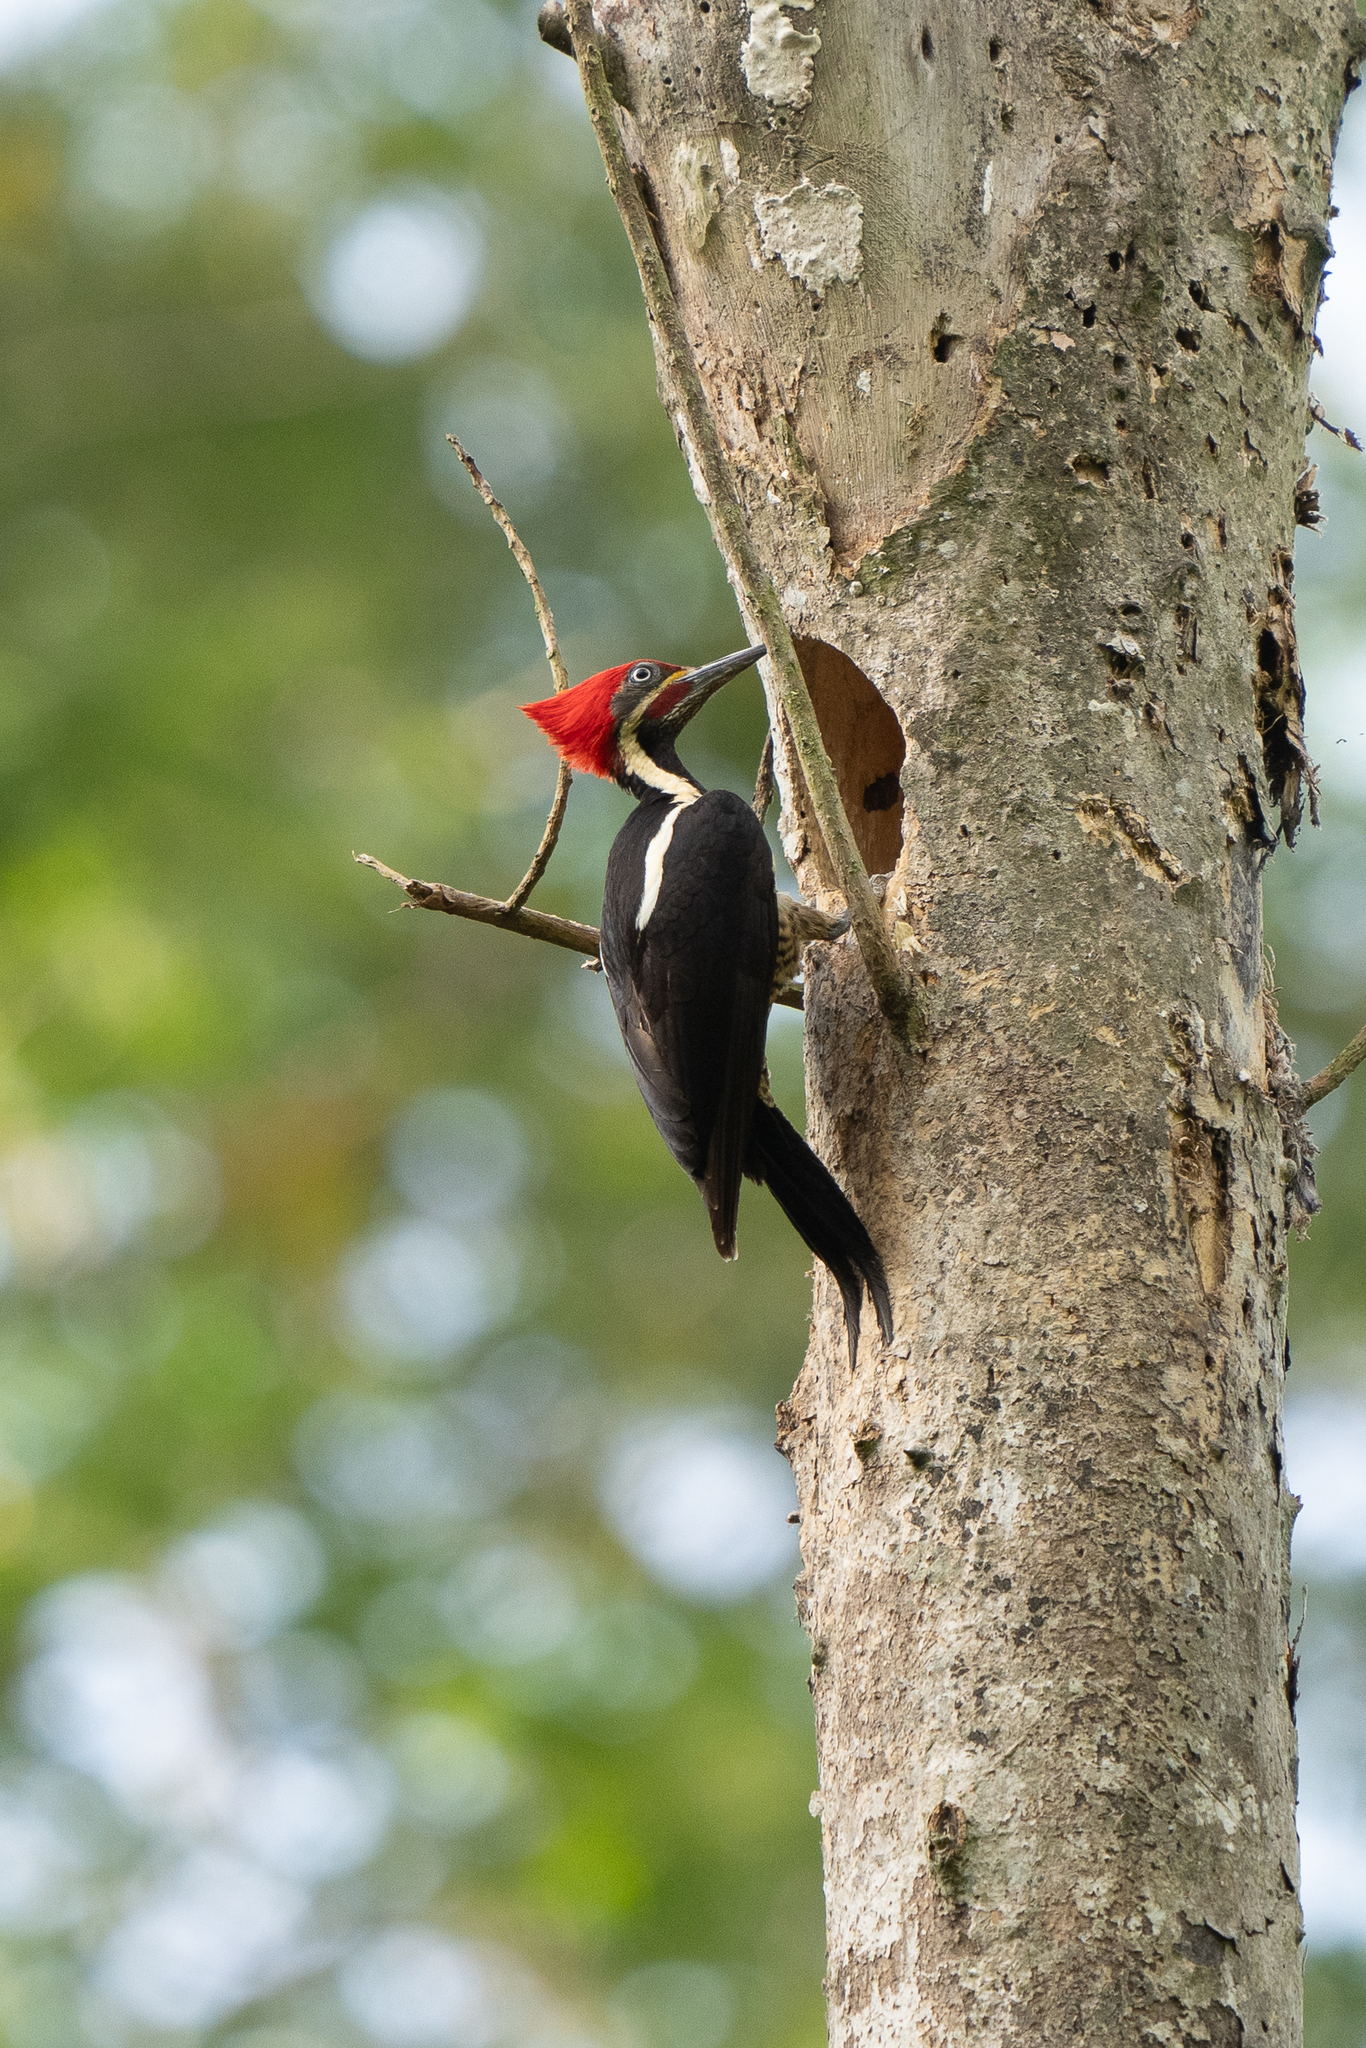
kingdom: Animalia
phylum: Chordata
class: Aves
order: Piciformes
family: Picidae
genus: Dryocopus
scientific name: Dryocopus lineatus
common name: Lineated woodpecker
